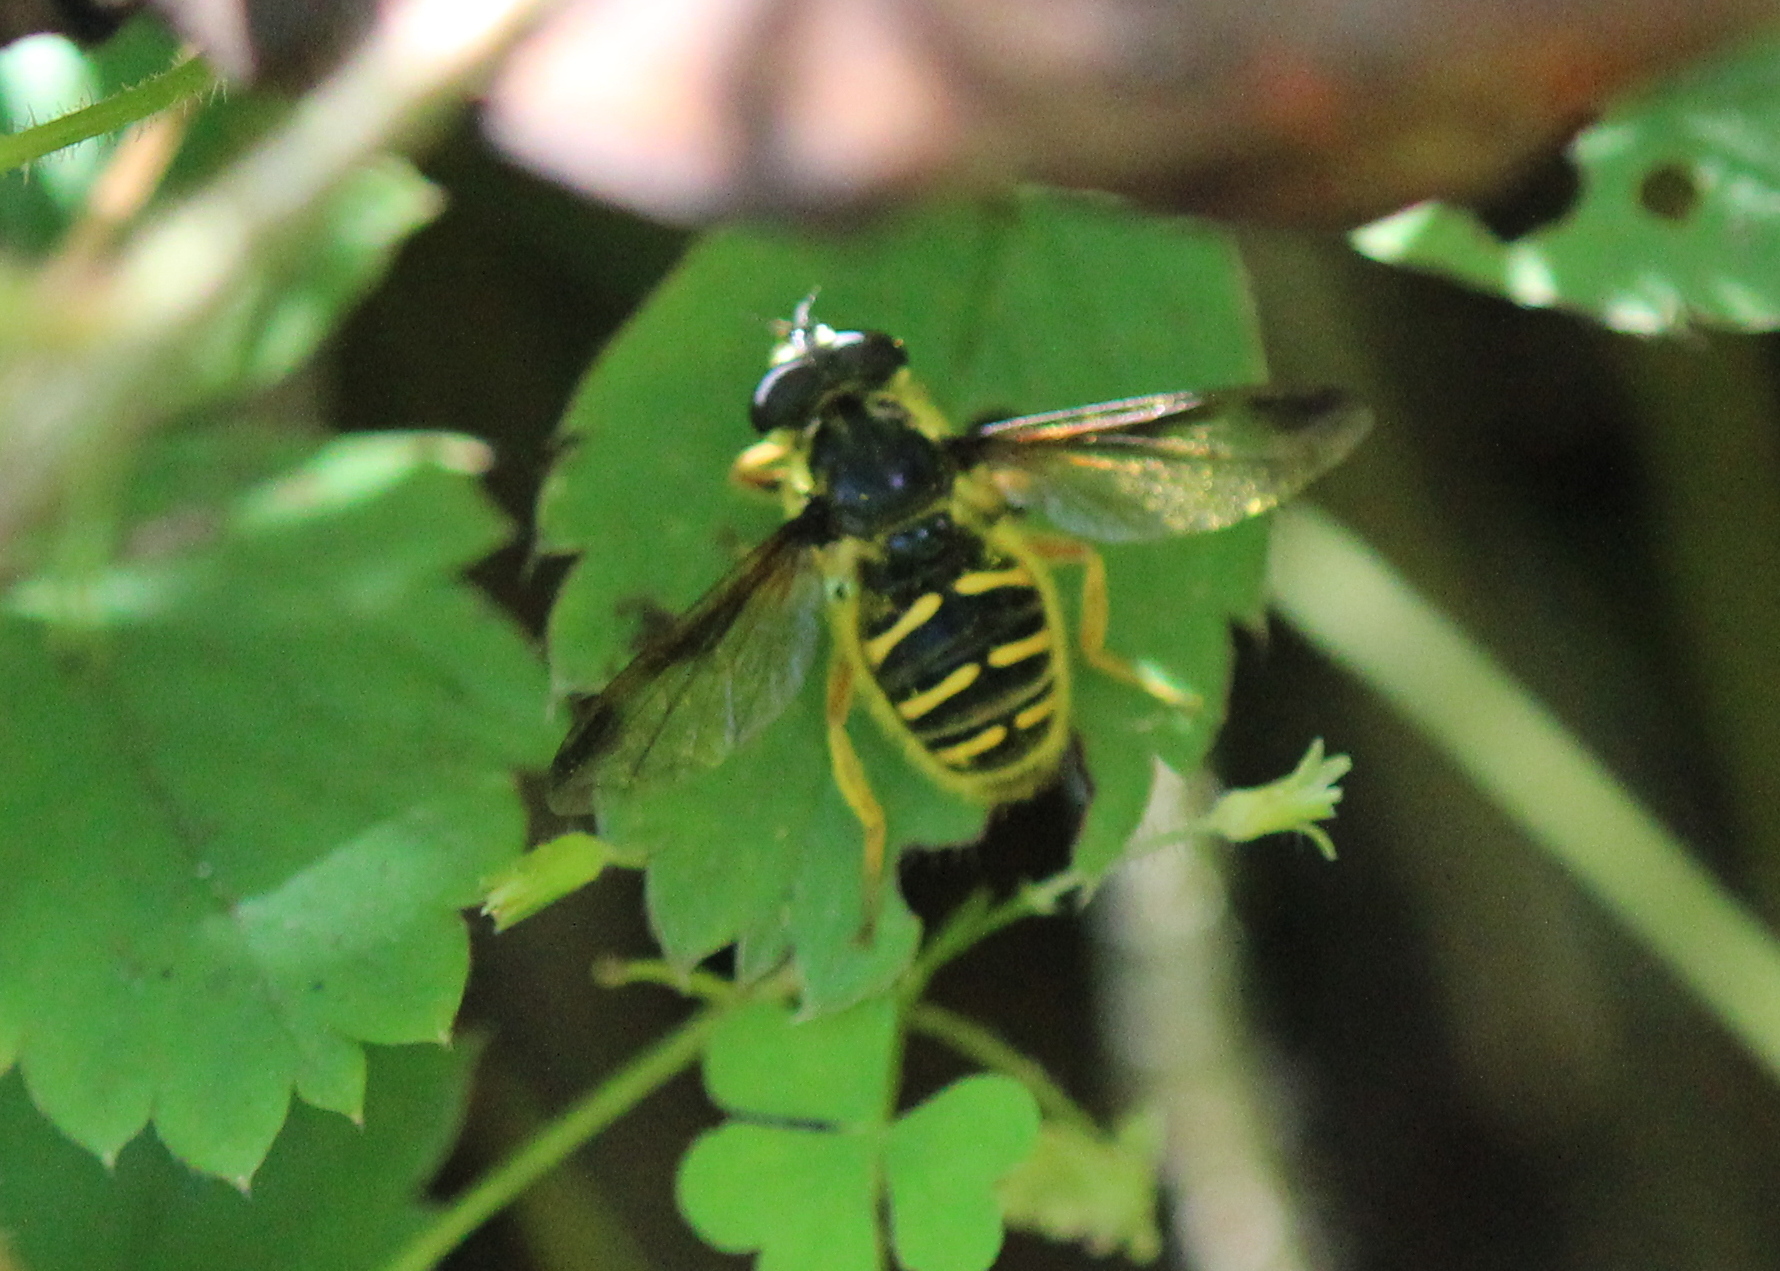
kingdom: Animalia
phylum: Arthropoda
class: Insecta
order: Diptera
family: Syrphidae
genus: Sericomyia
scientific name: Sericomyia chrysotoxoides
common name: Oblique-banded pond fly
